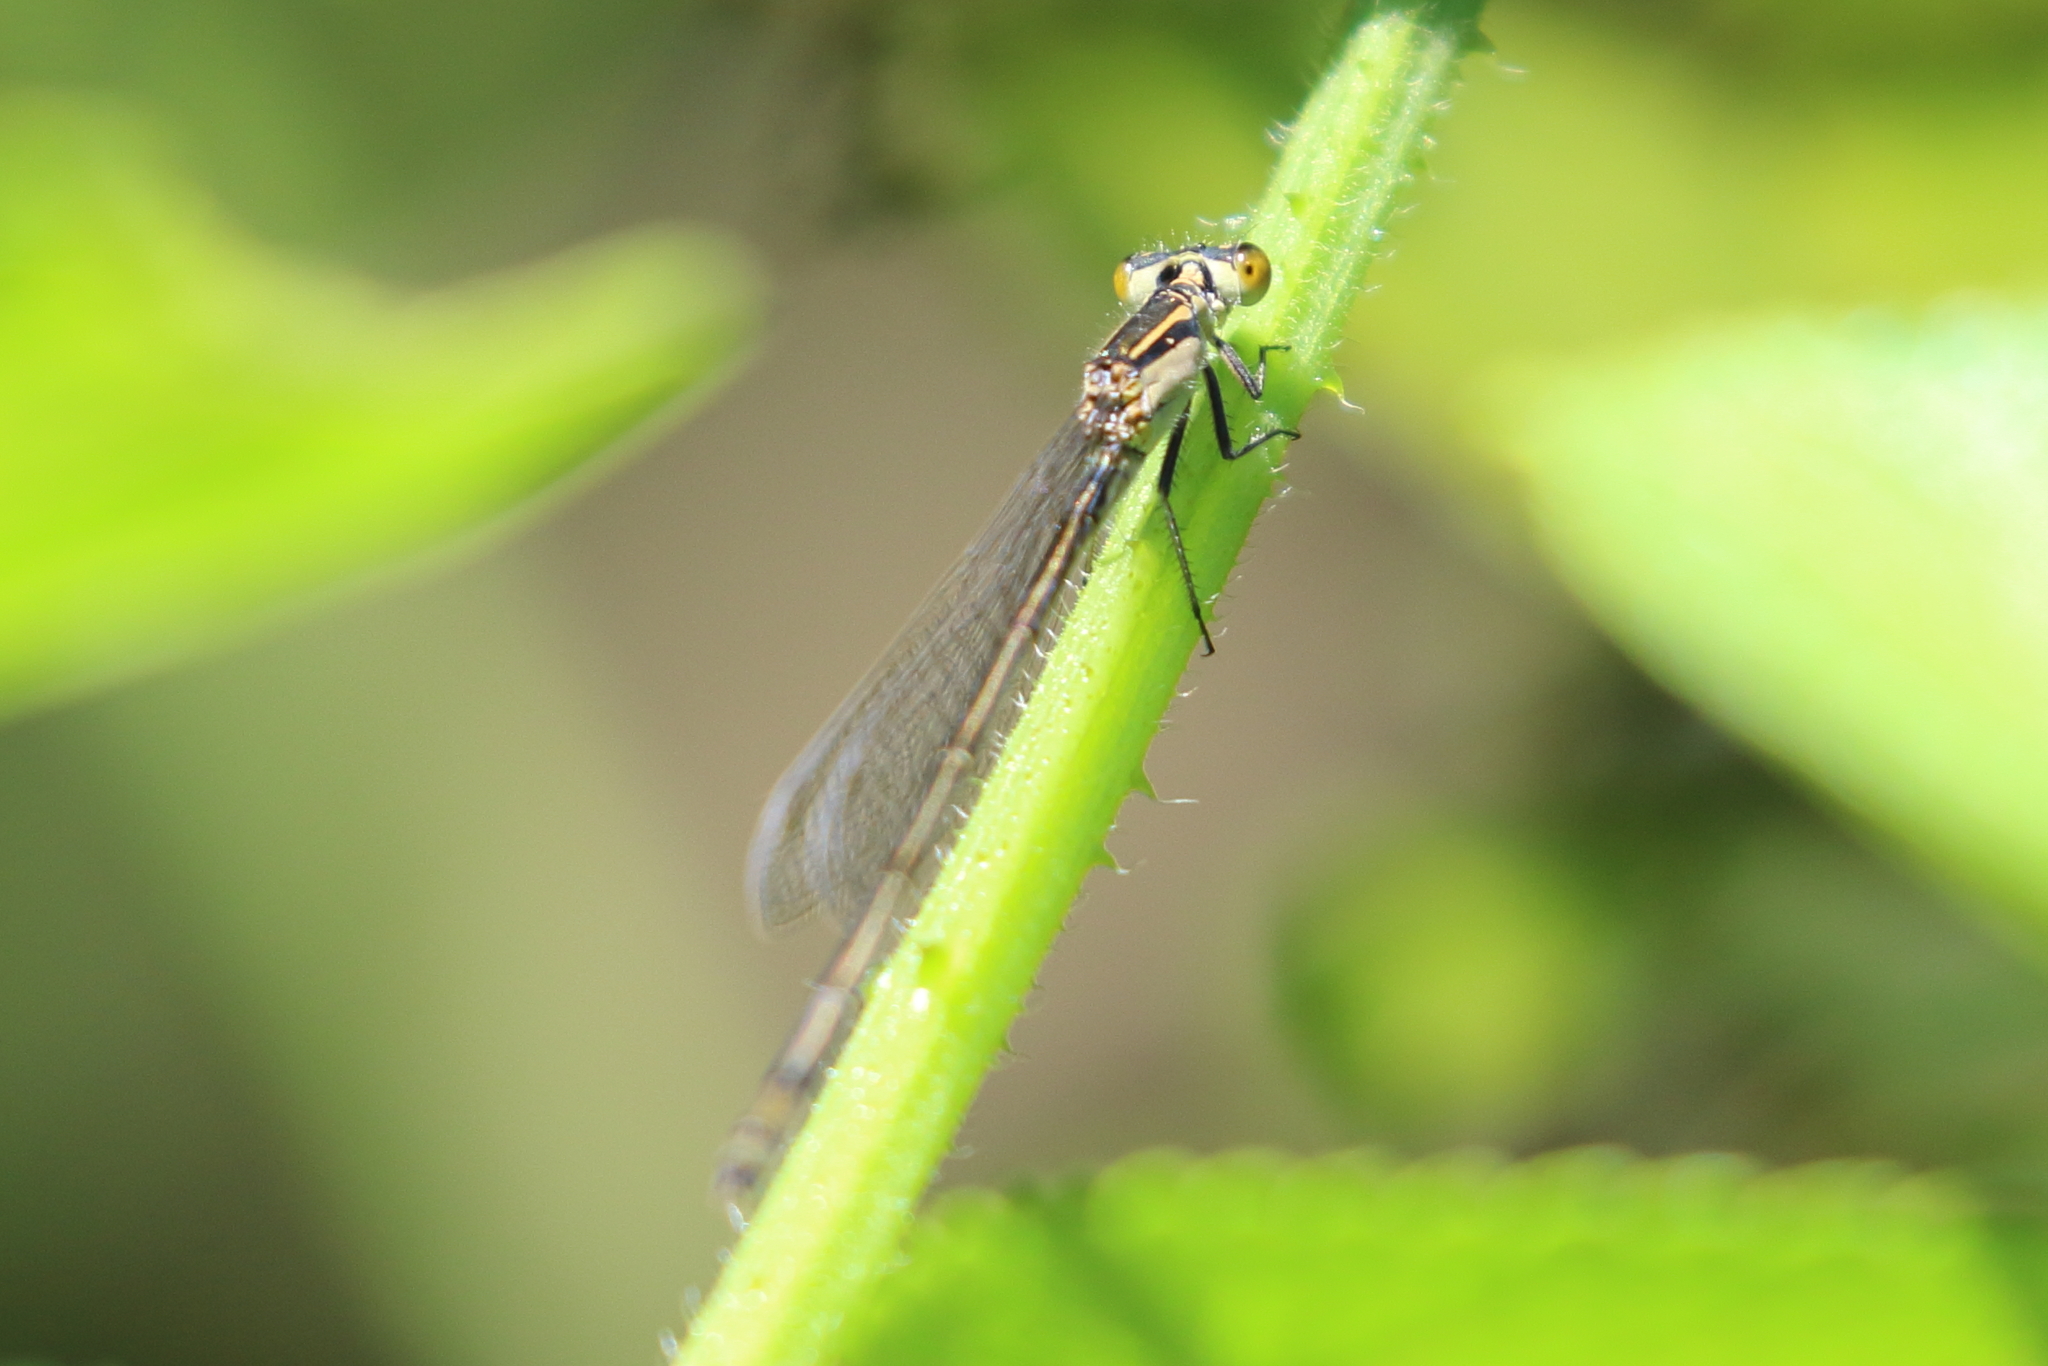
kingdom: Animalia
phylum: Arthropoda
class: Insecta
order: Odonata
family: Coenagrionidae
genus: Ischnura
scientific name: Ischnura heterosticta
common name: Common bluetail
